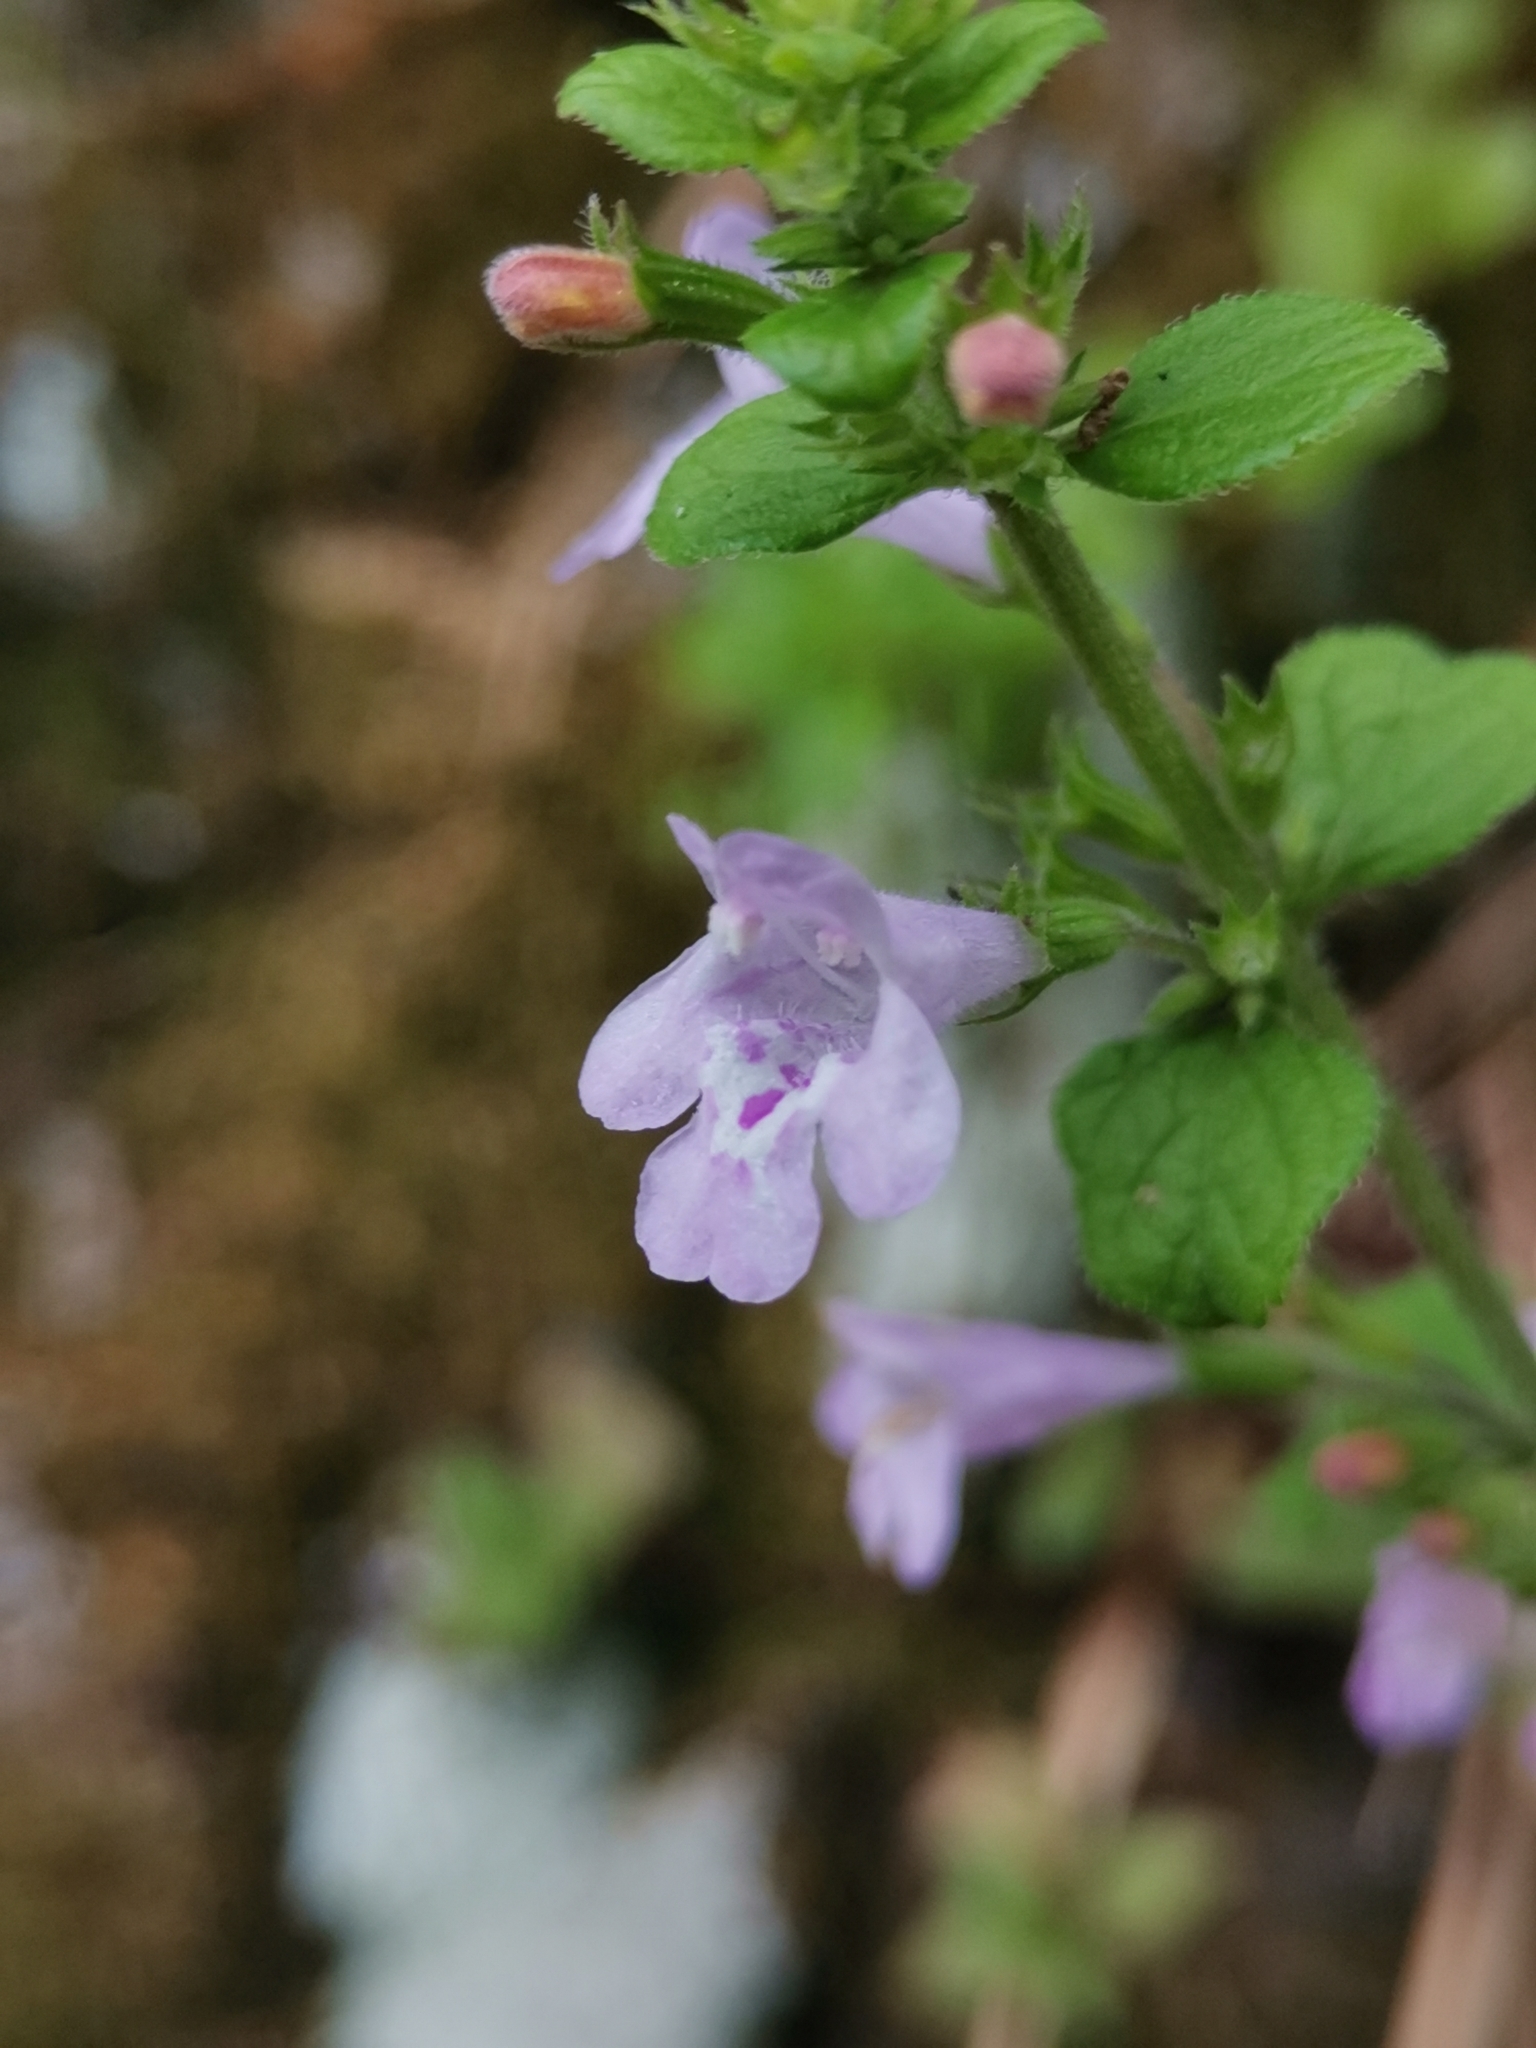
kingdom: Plantae
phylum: Tracheophyta
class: Magnoliopsida
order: Lamiales
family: Lamiaceae
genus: Clinopodium
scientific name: Clinopodium menthifolium
